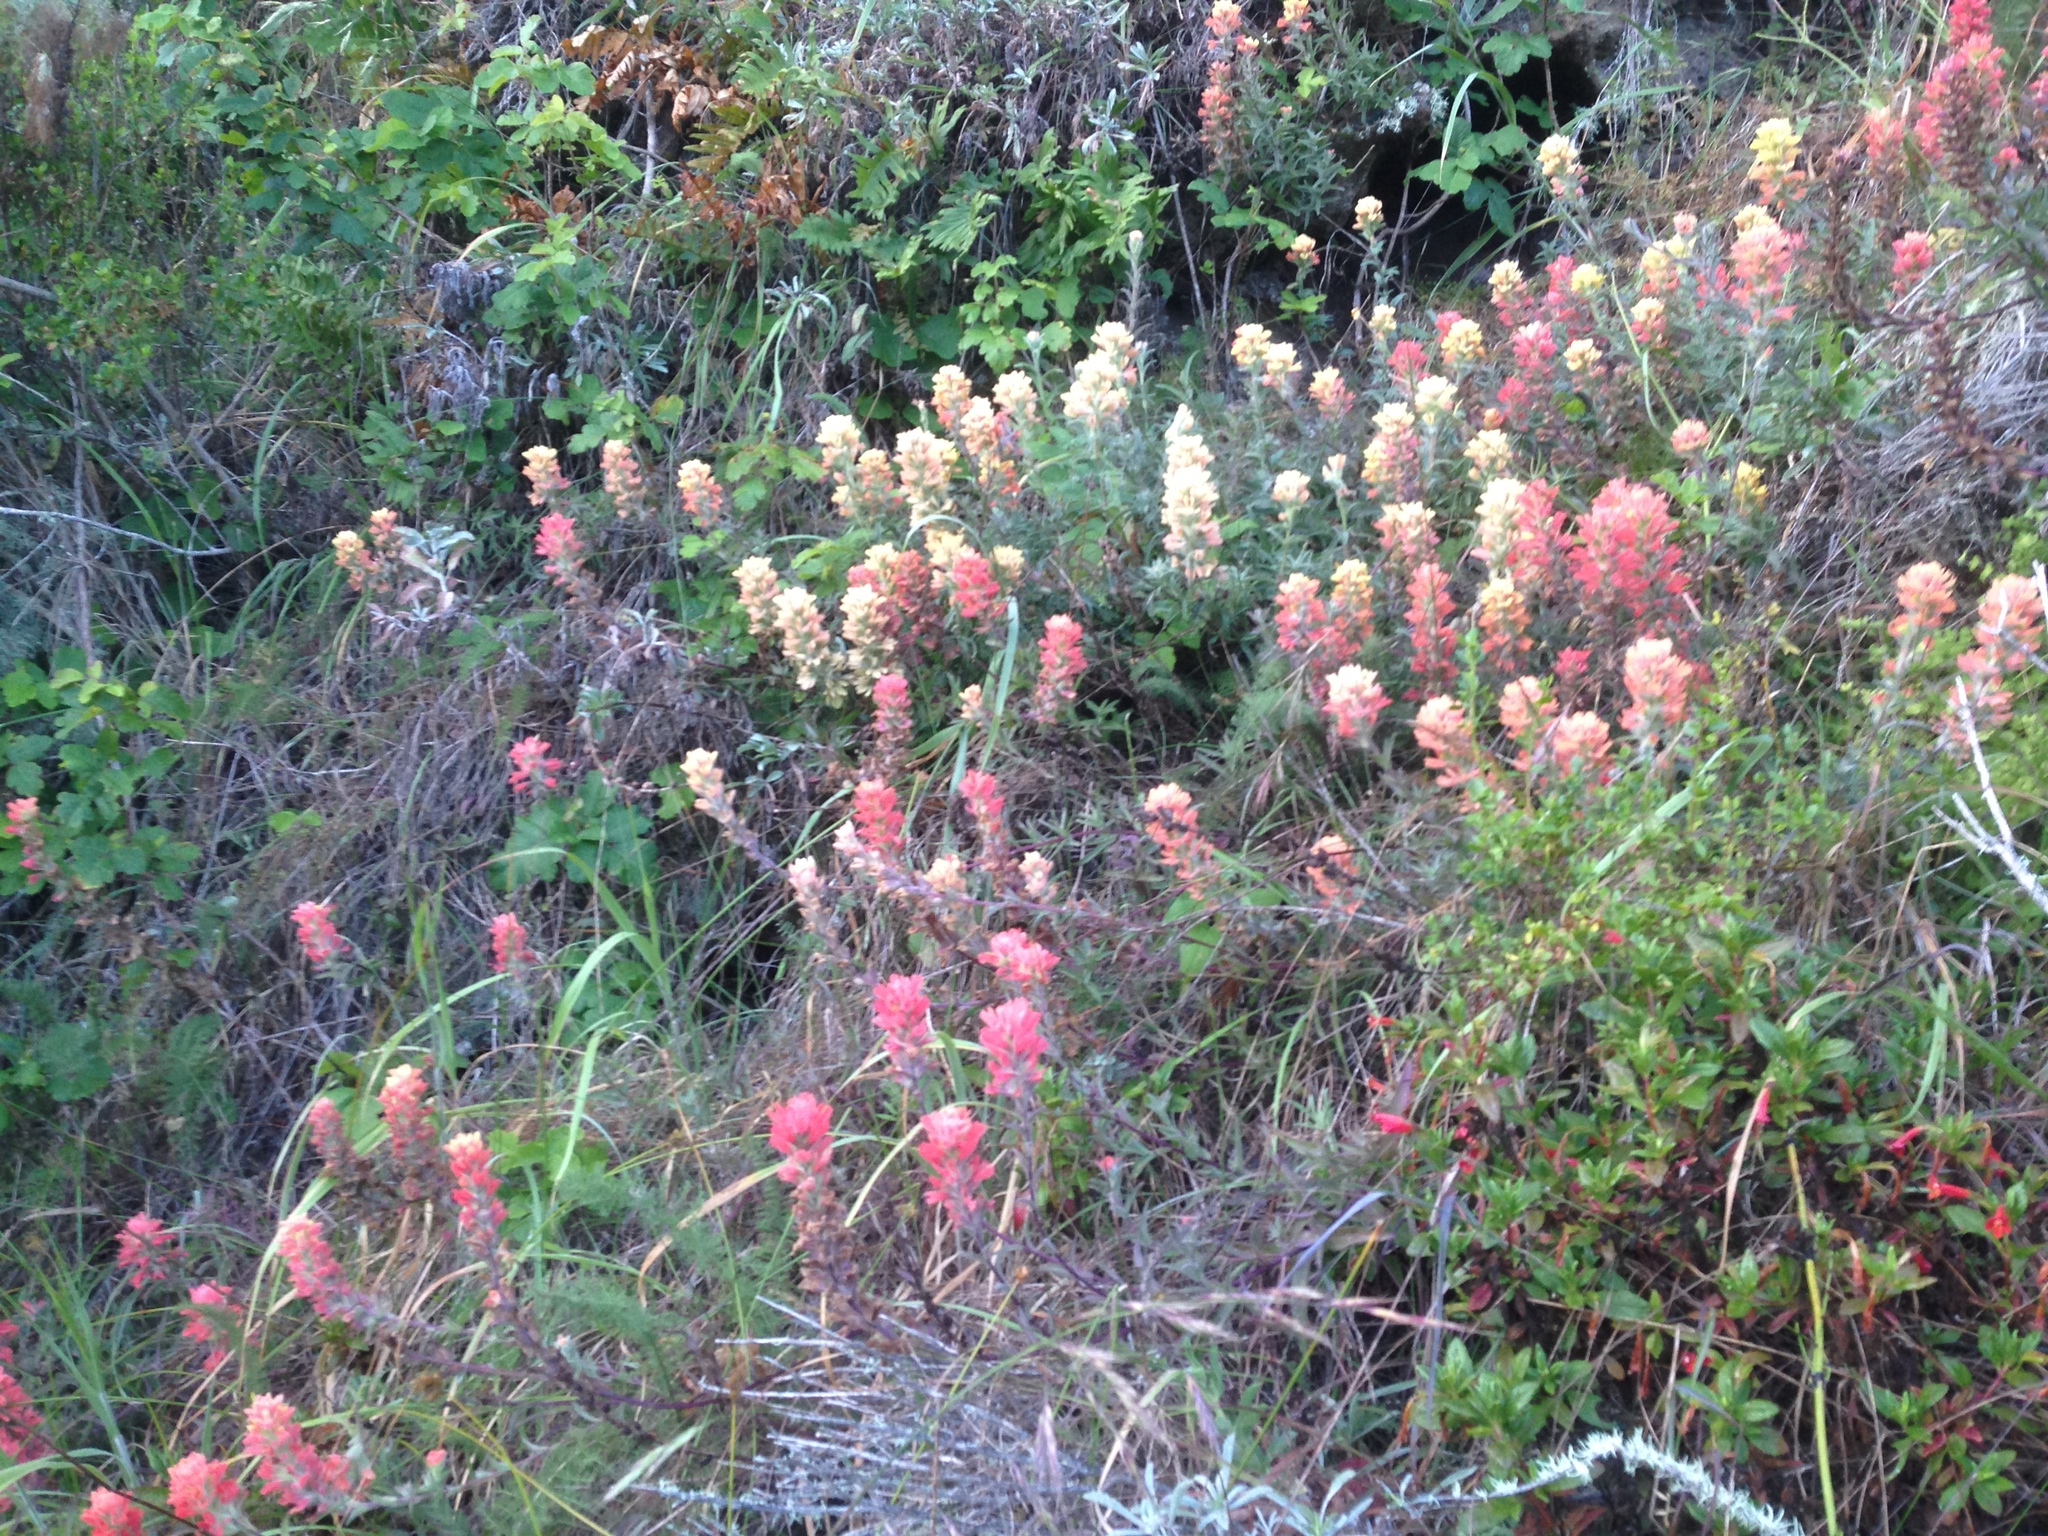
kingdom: Plantae
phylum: Tracheophyta
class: Magnoliopsida
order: Lamiales
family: Orobanchaceae
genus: Castilleja
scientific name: Castilleja affinis
